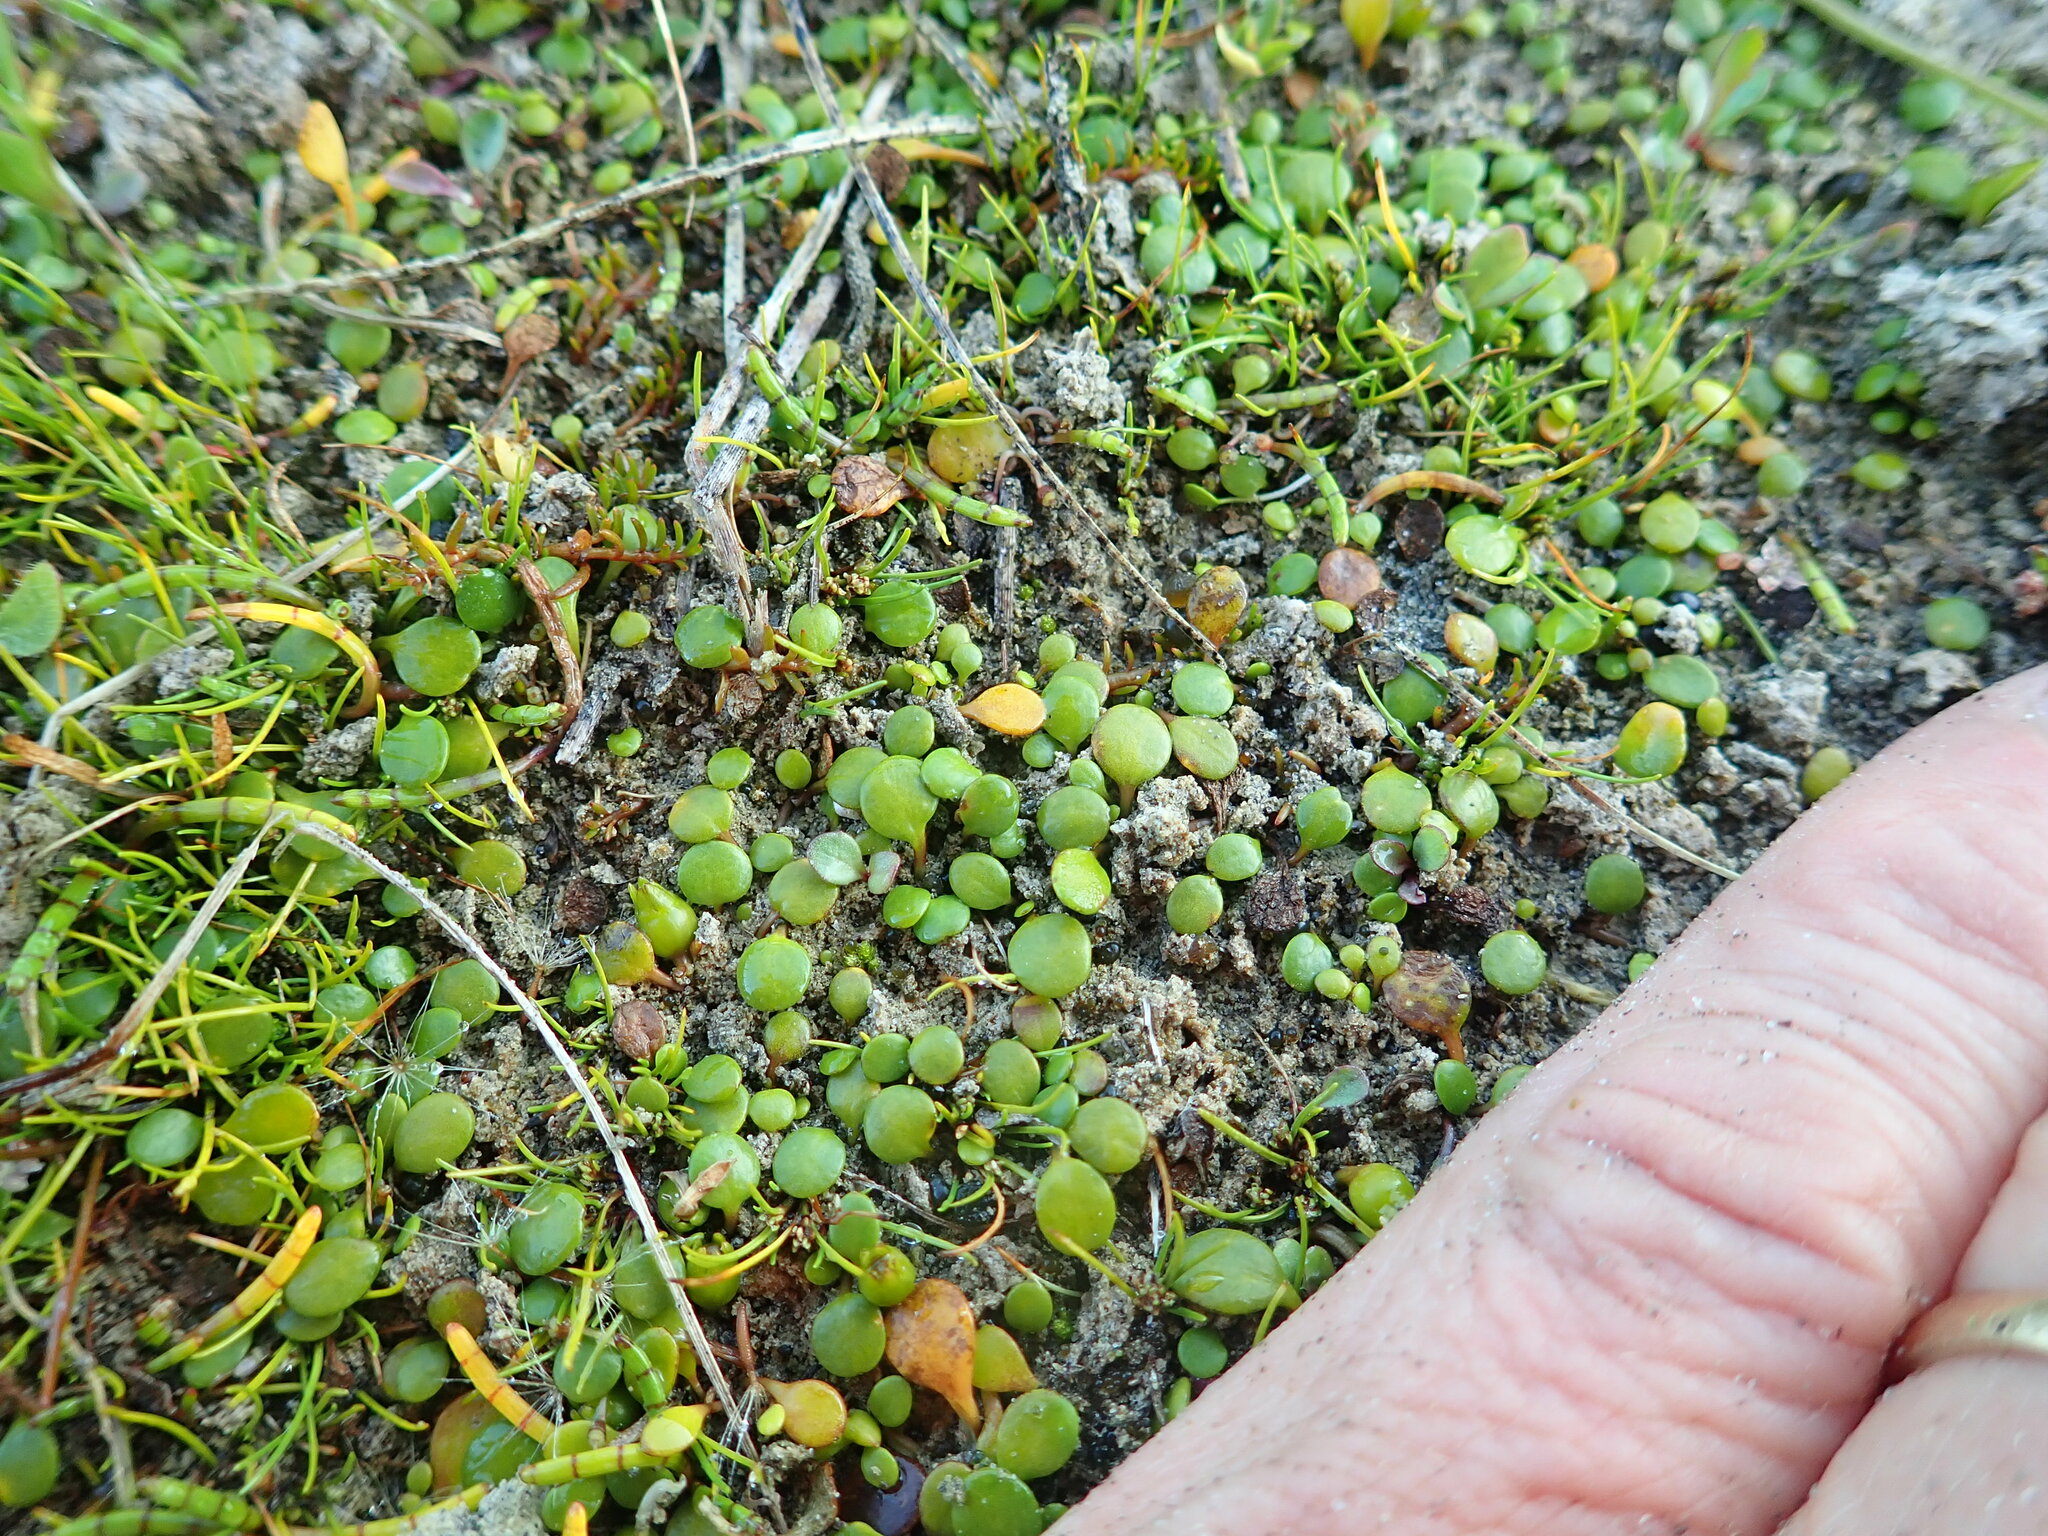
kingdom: Plantae
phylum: Tracheophyta
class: Liliopsida
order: Poales
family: Cyperaceae
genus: Isolepis
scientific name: Isolepis basilaris
